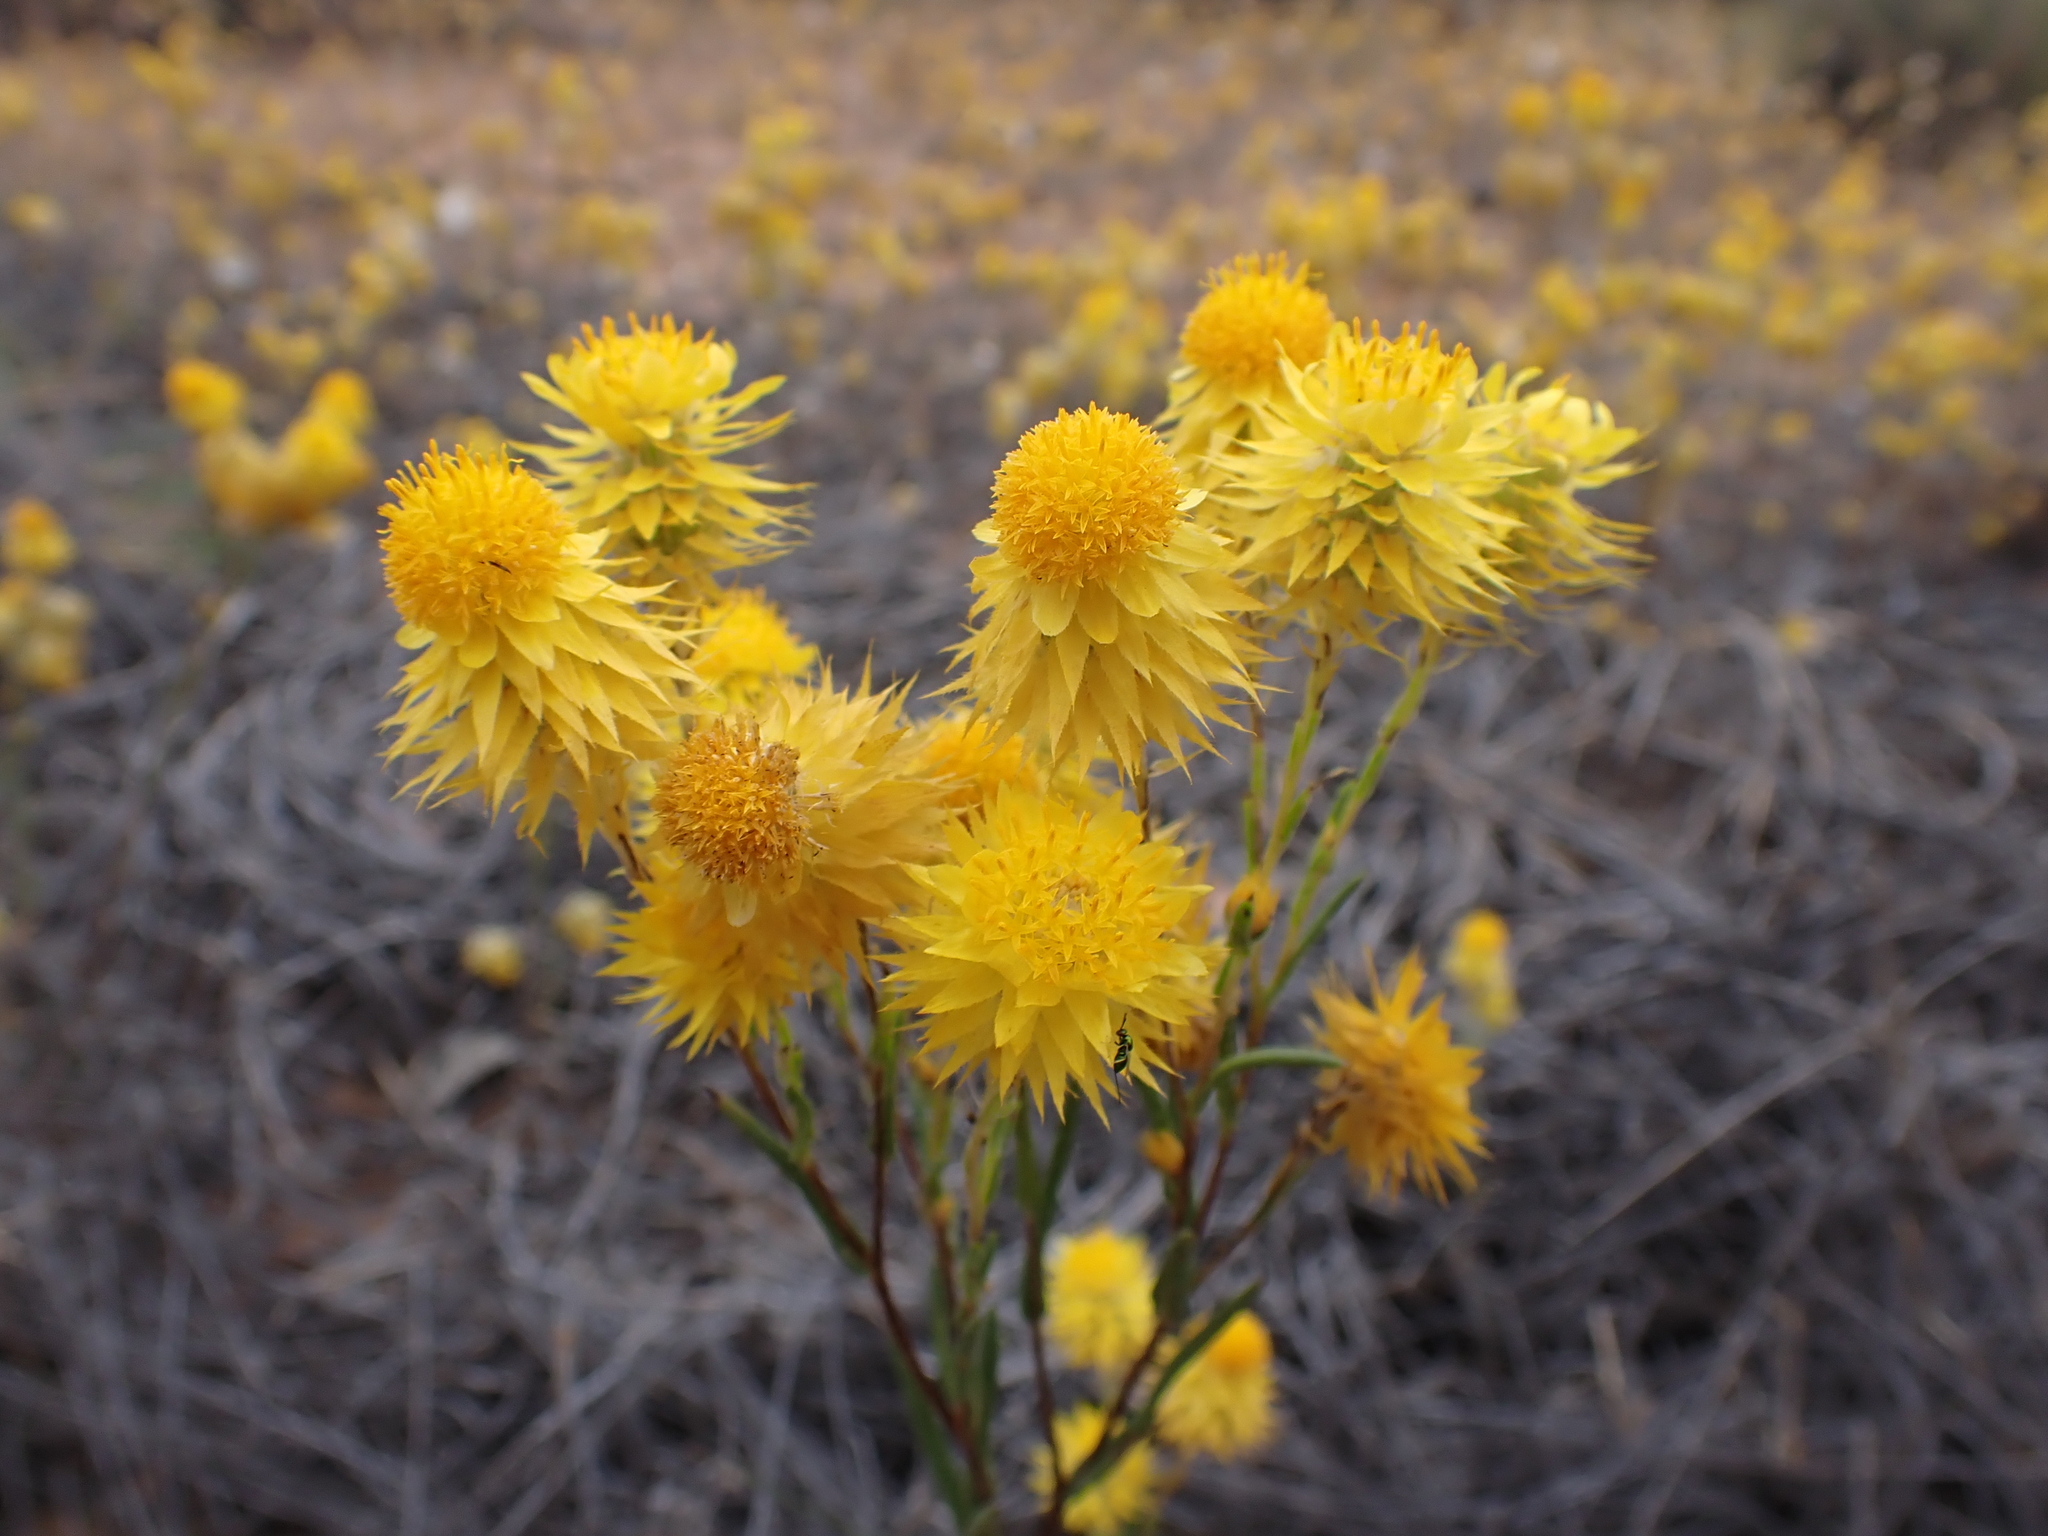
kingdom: Plantae
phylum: Tracheophyta
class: Magnoliopsida
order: Asterales
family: Asteraceae
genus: Waitzia
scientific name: Waitzia acuminata
